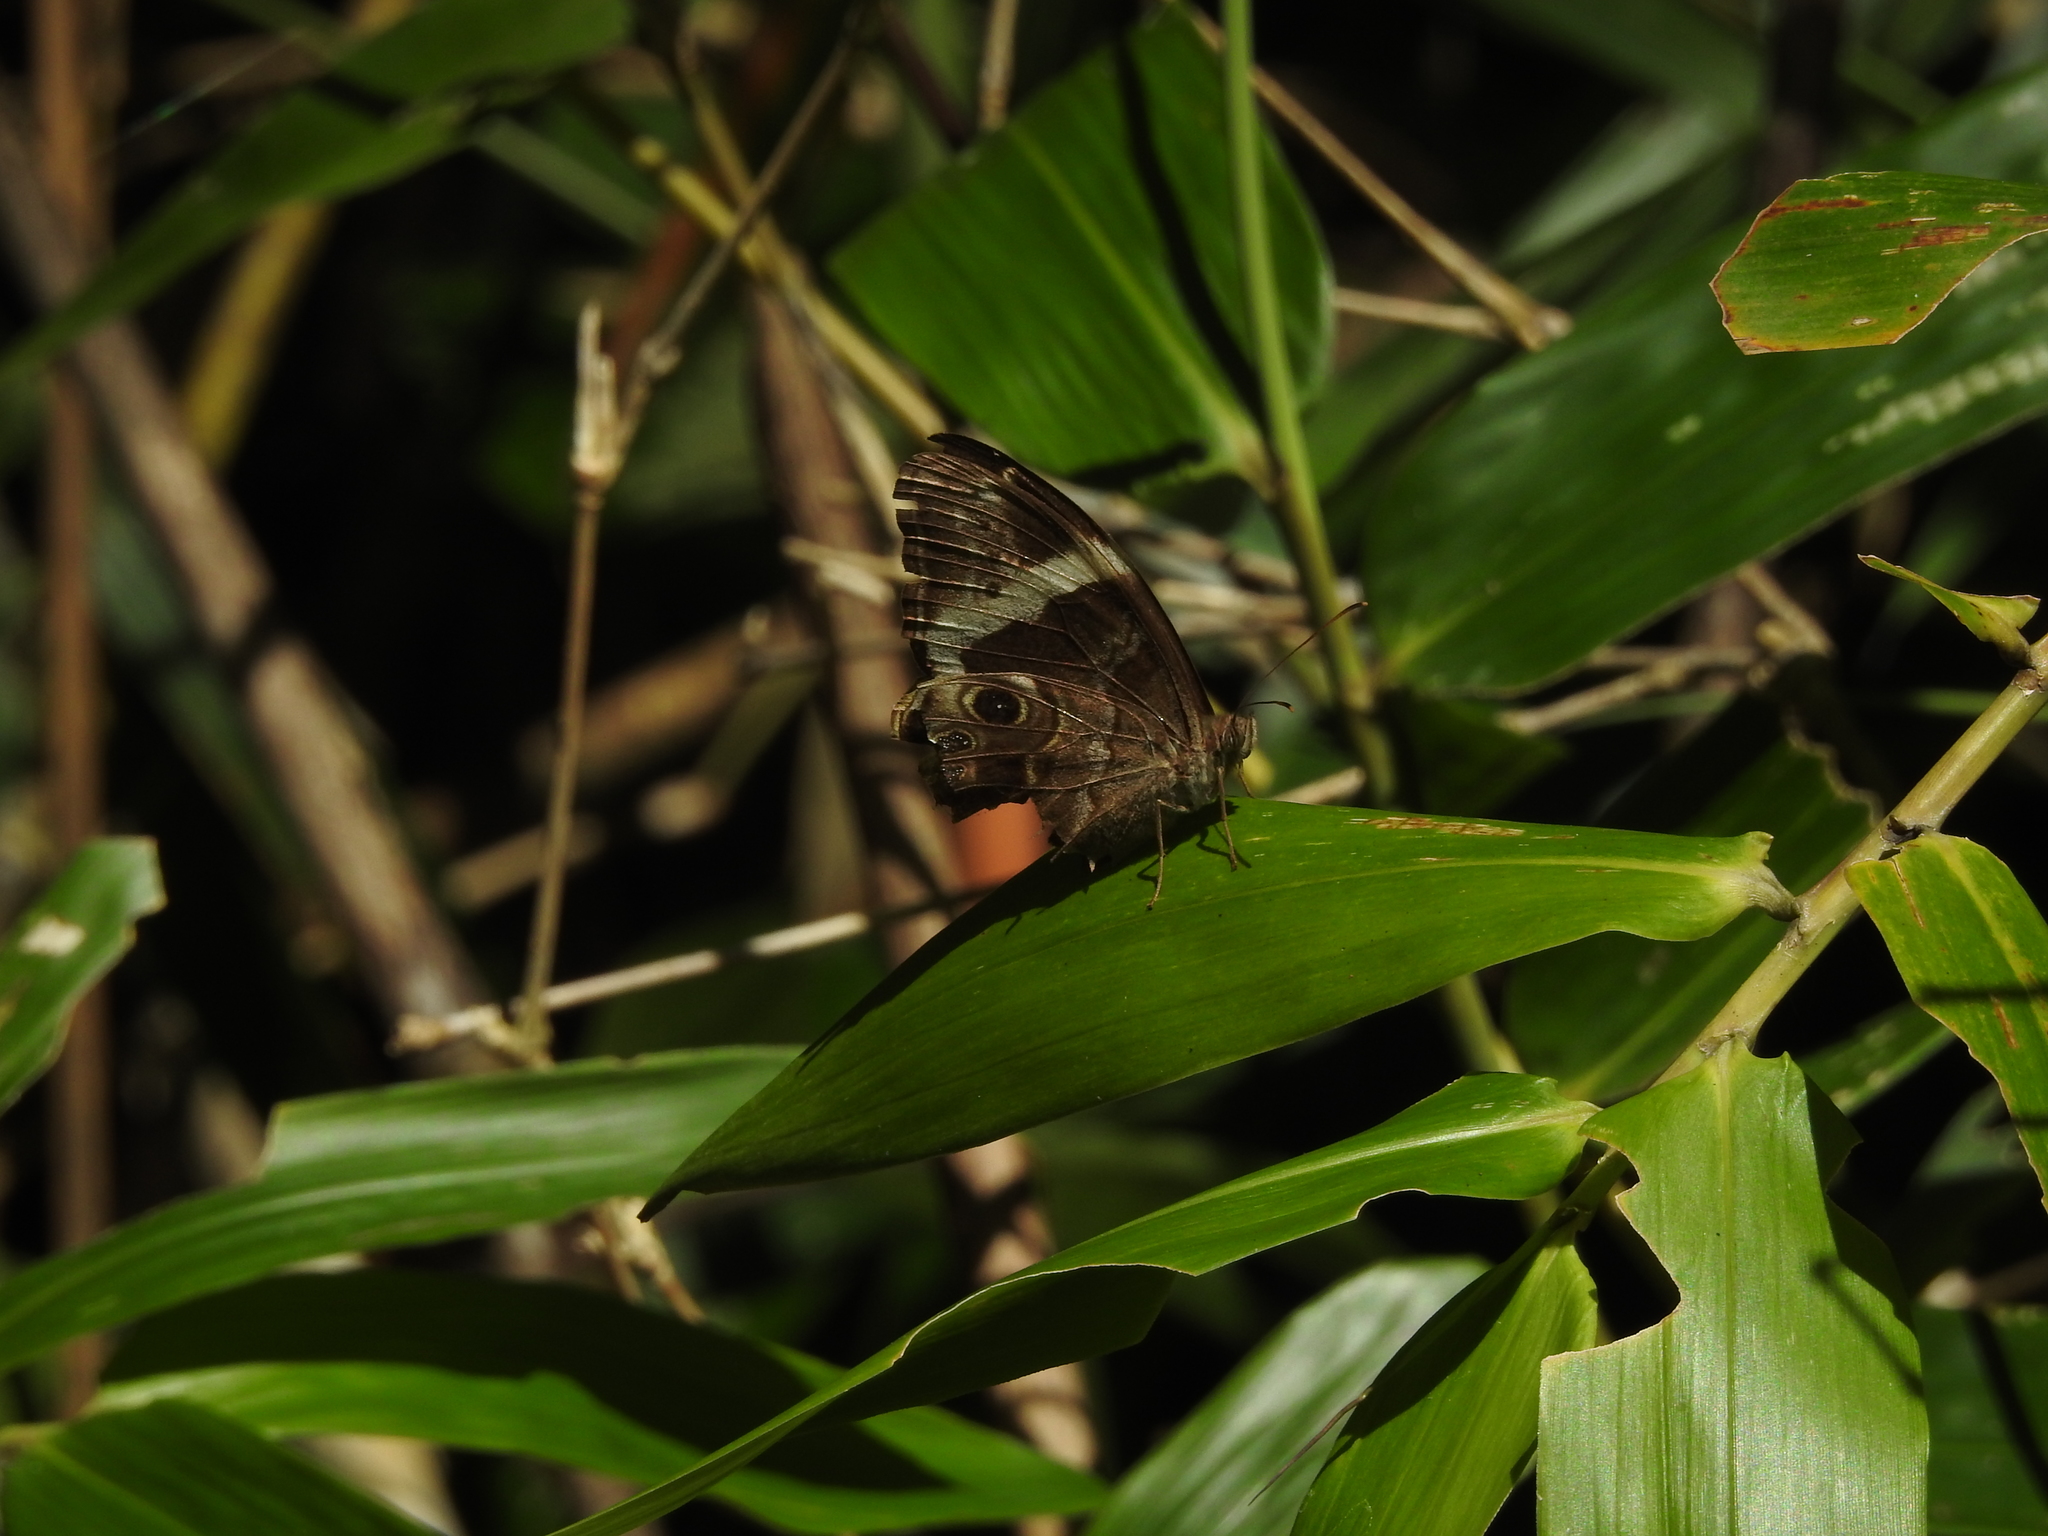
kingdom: Animalia
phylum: Arthropoda
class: Insecta
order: Lepidoptera
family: Nymphalidae
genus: Lethe
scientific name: Lethe drypetis
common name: Tamil treebrown
